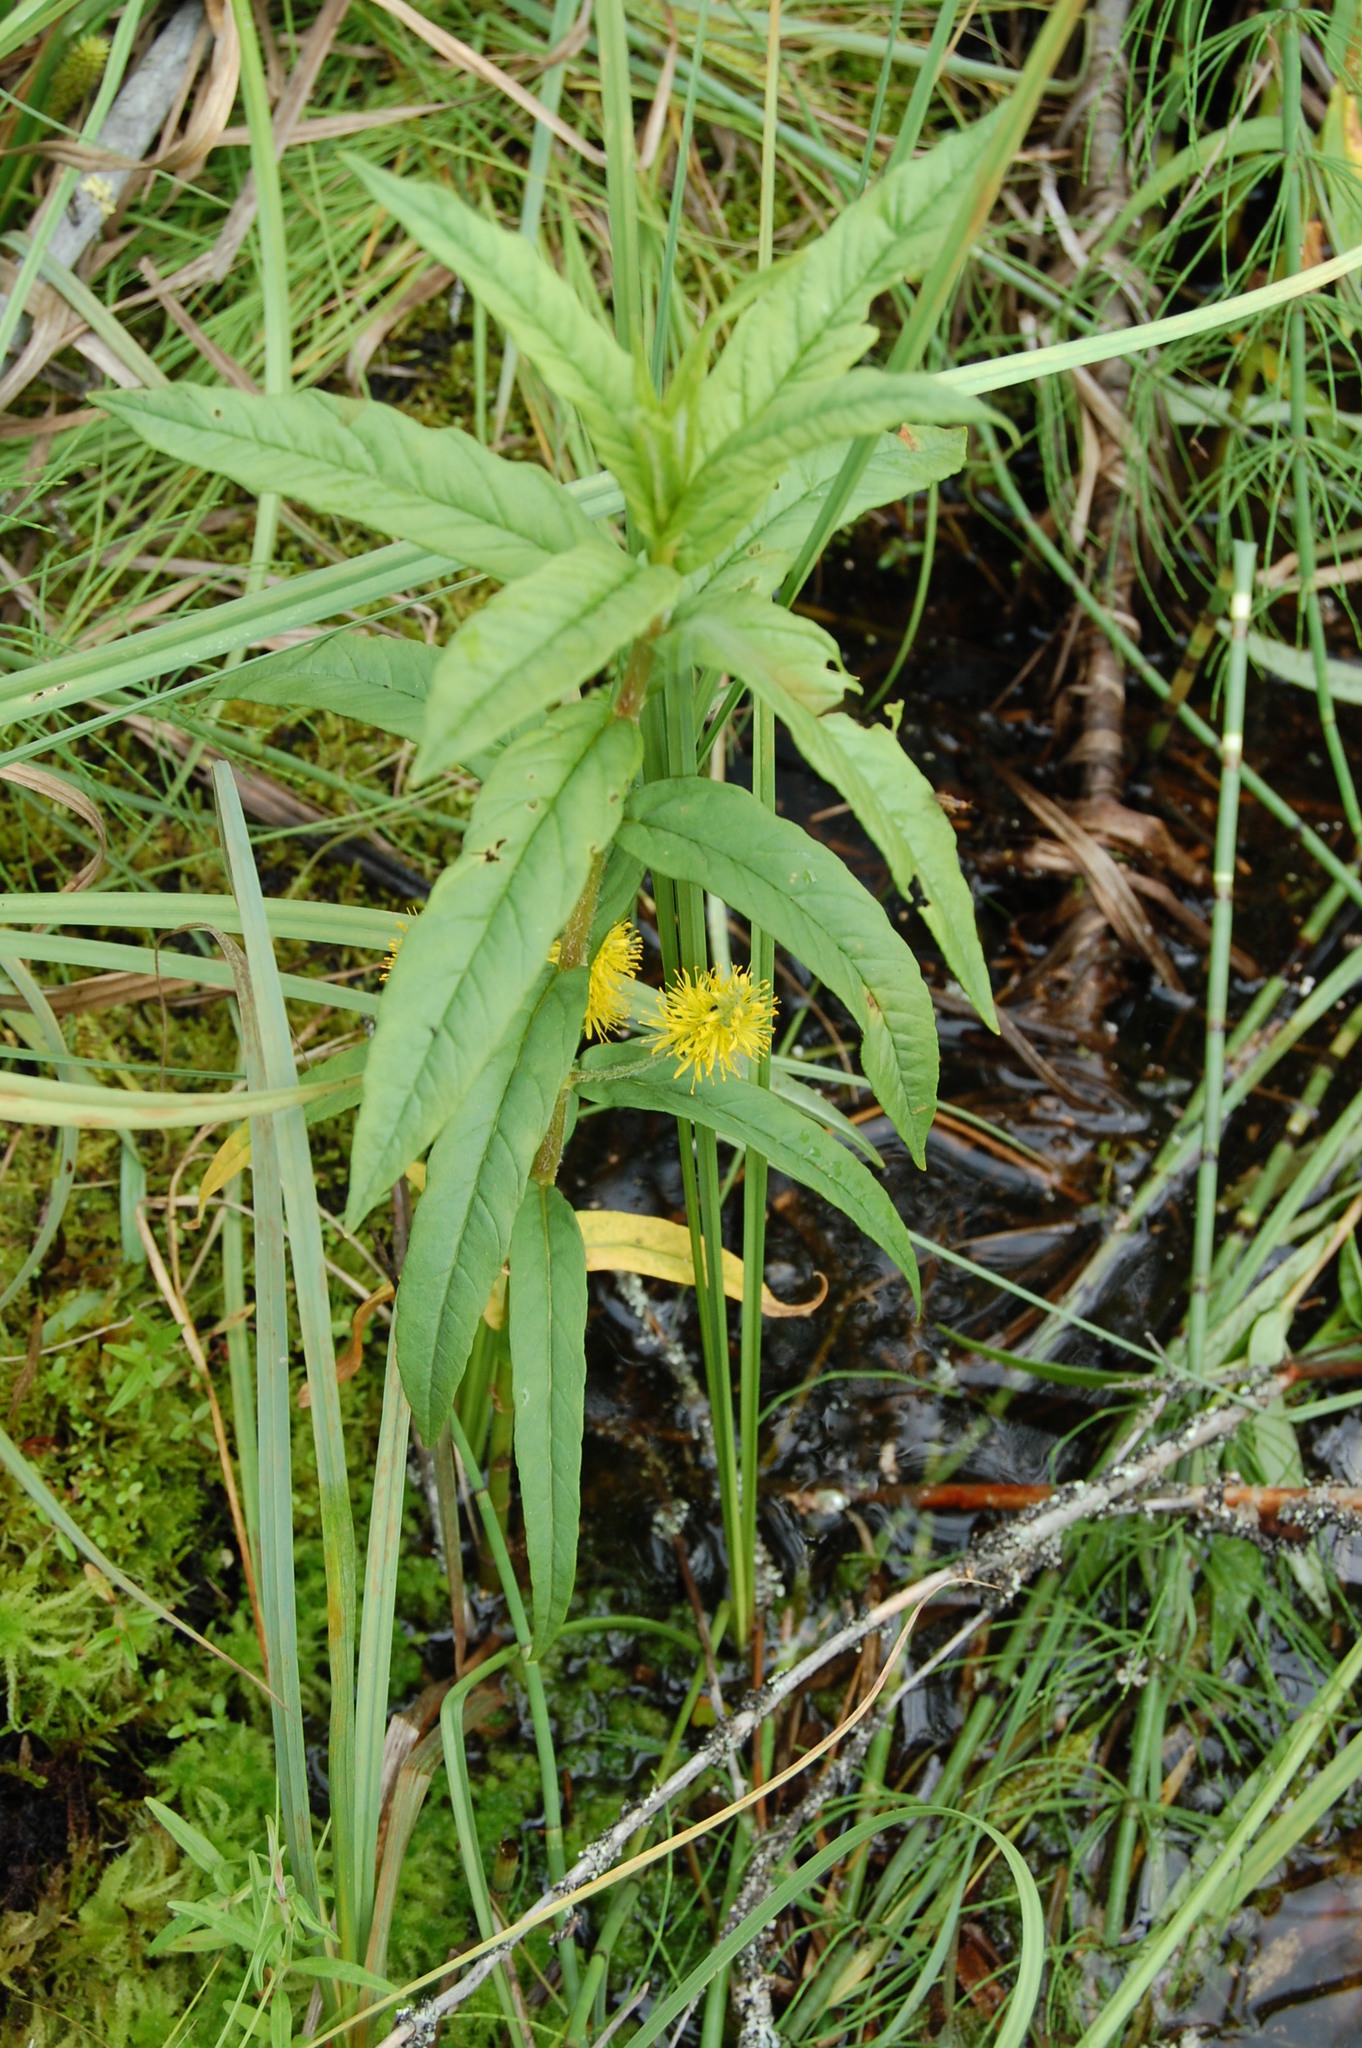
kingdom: Plantae
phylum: Tracheophyta
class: Magnoliopsida
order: Ericales
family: Primulaceae
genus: Lysimachia
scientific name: Lysimachia thyrsiflora
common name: Tufted loosestrife
